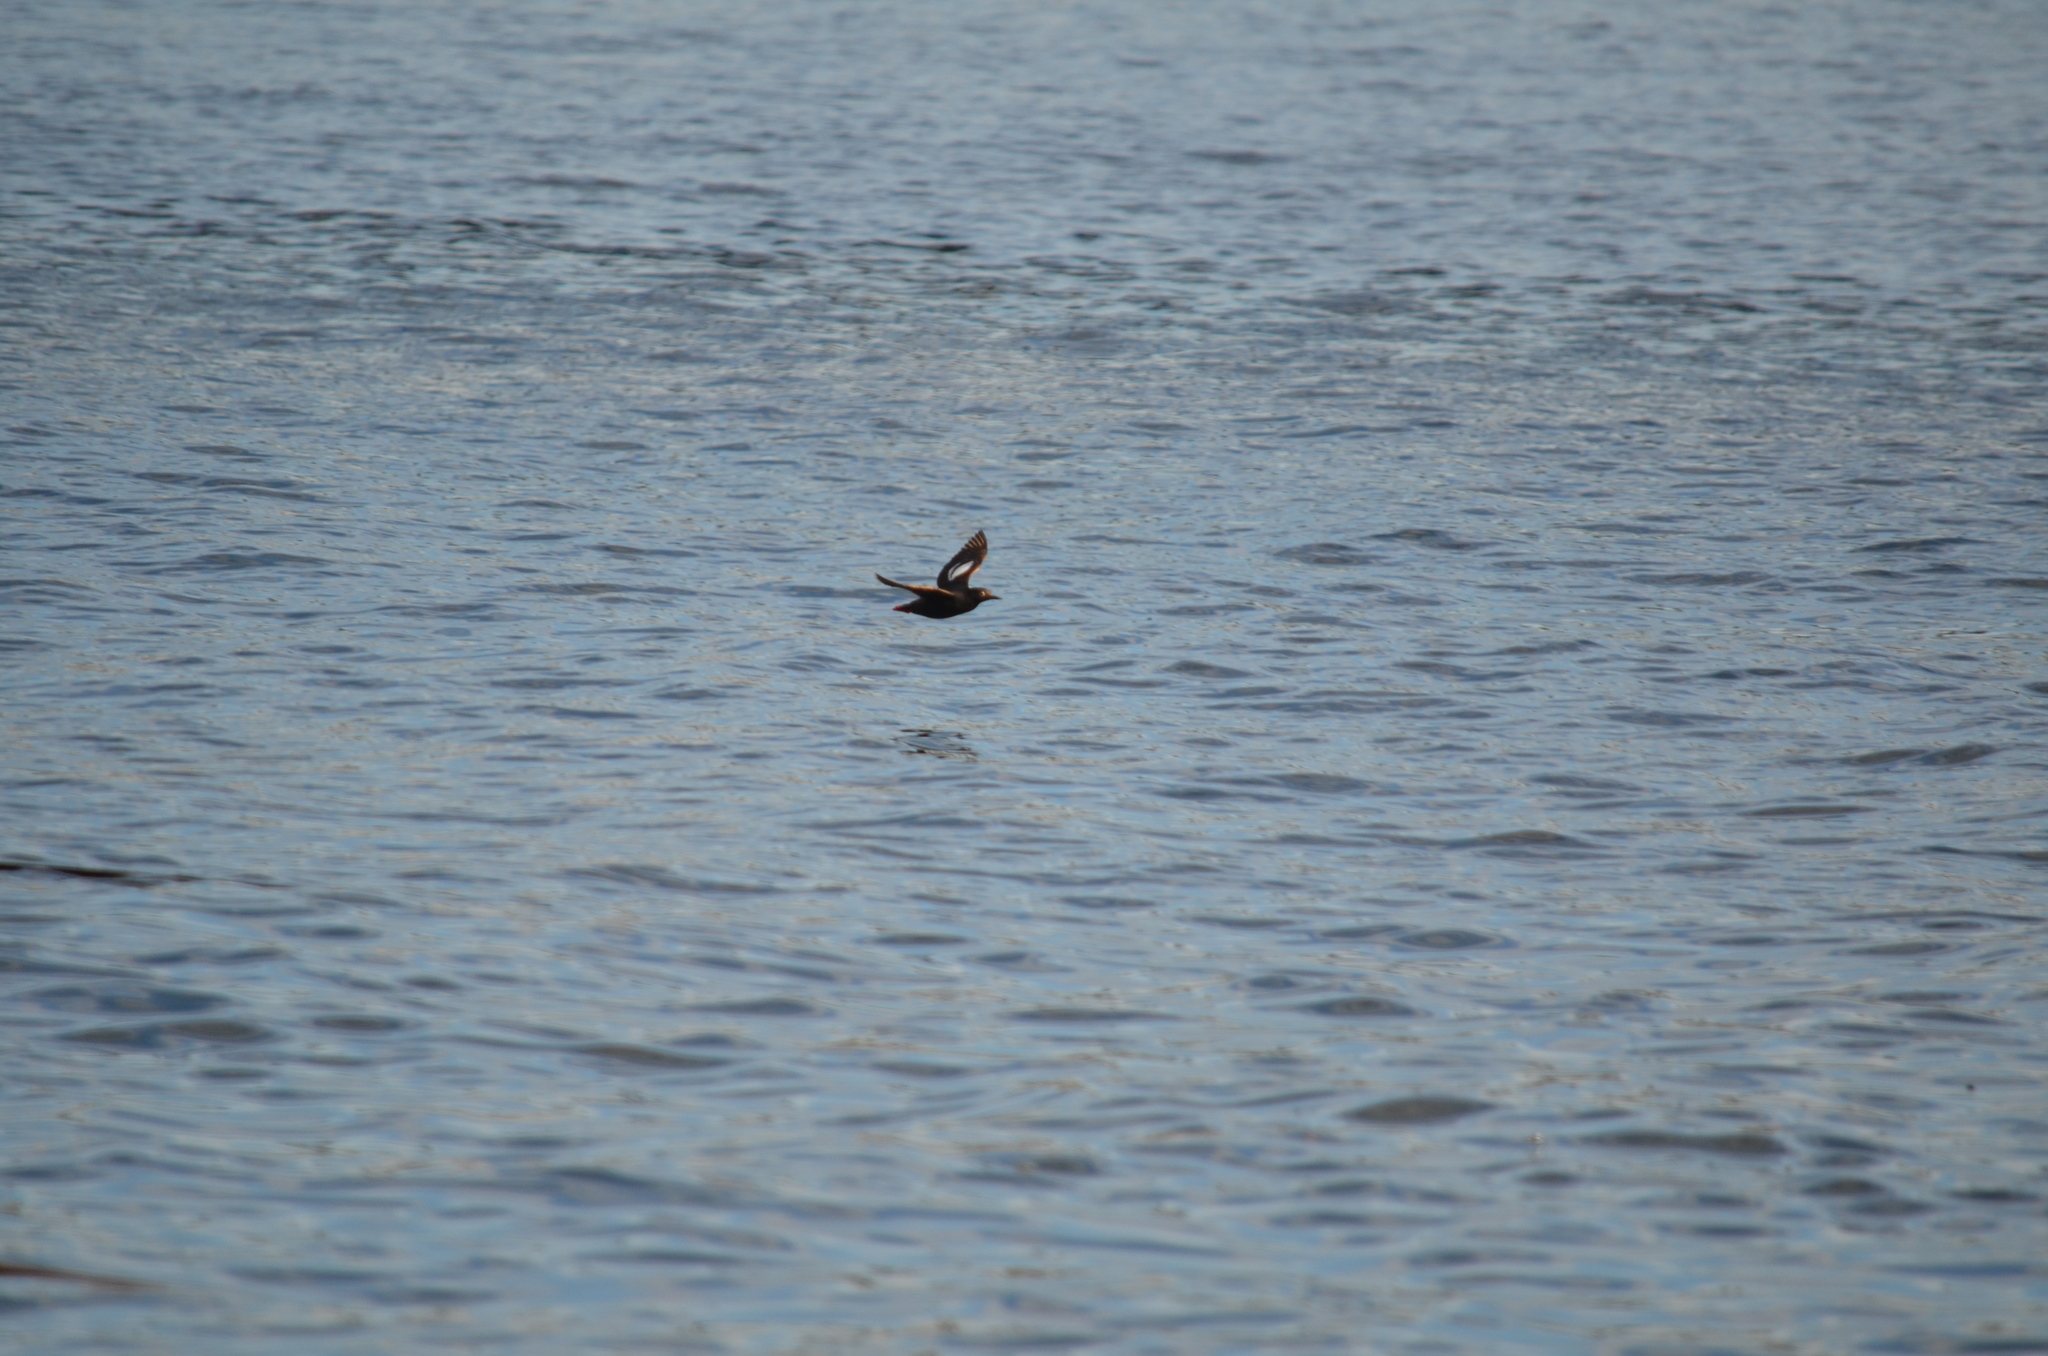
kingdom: Animalia
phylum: Chordata
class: Aves
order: Charadriiformes
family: Alcidae
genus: Cepphus
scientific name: Cepphus columba
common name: Pigeon guillemot
